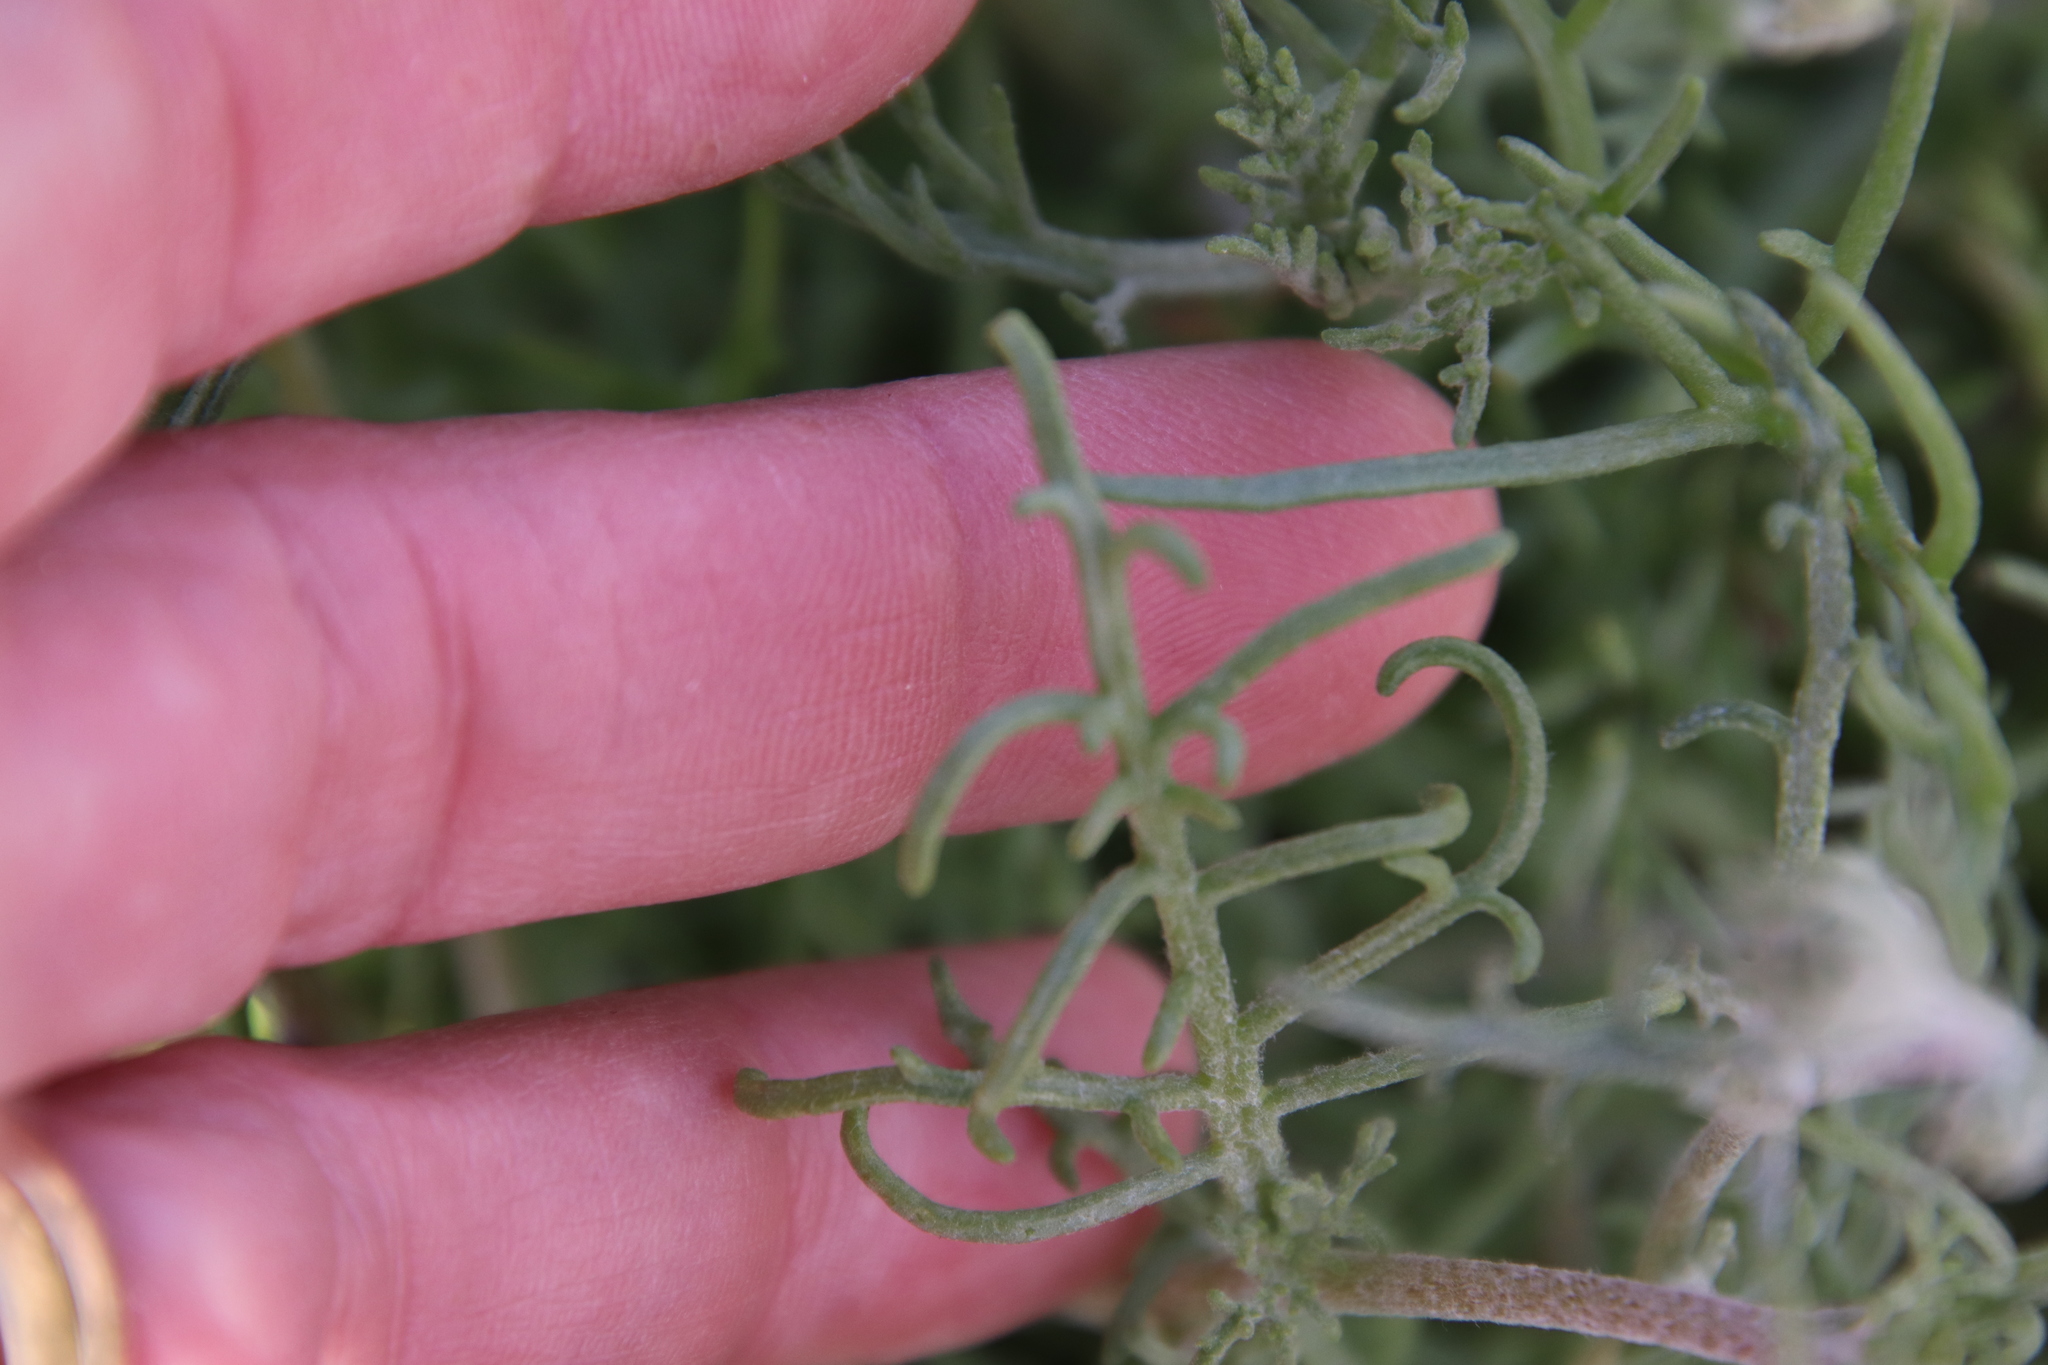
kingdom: Plantae
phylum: Tracheophyta
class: Magnoliopsida
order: Asterales
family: Asteraceae
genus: Chaenactis
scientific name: Chaenactis stevioides
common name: Desert pincushion
